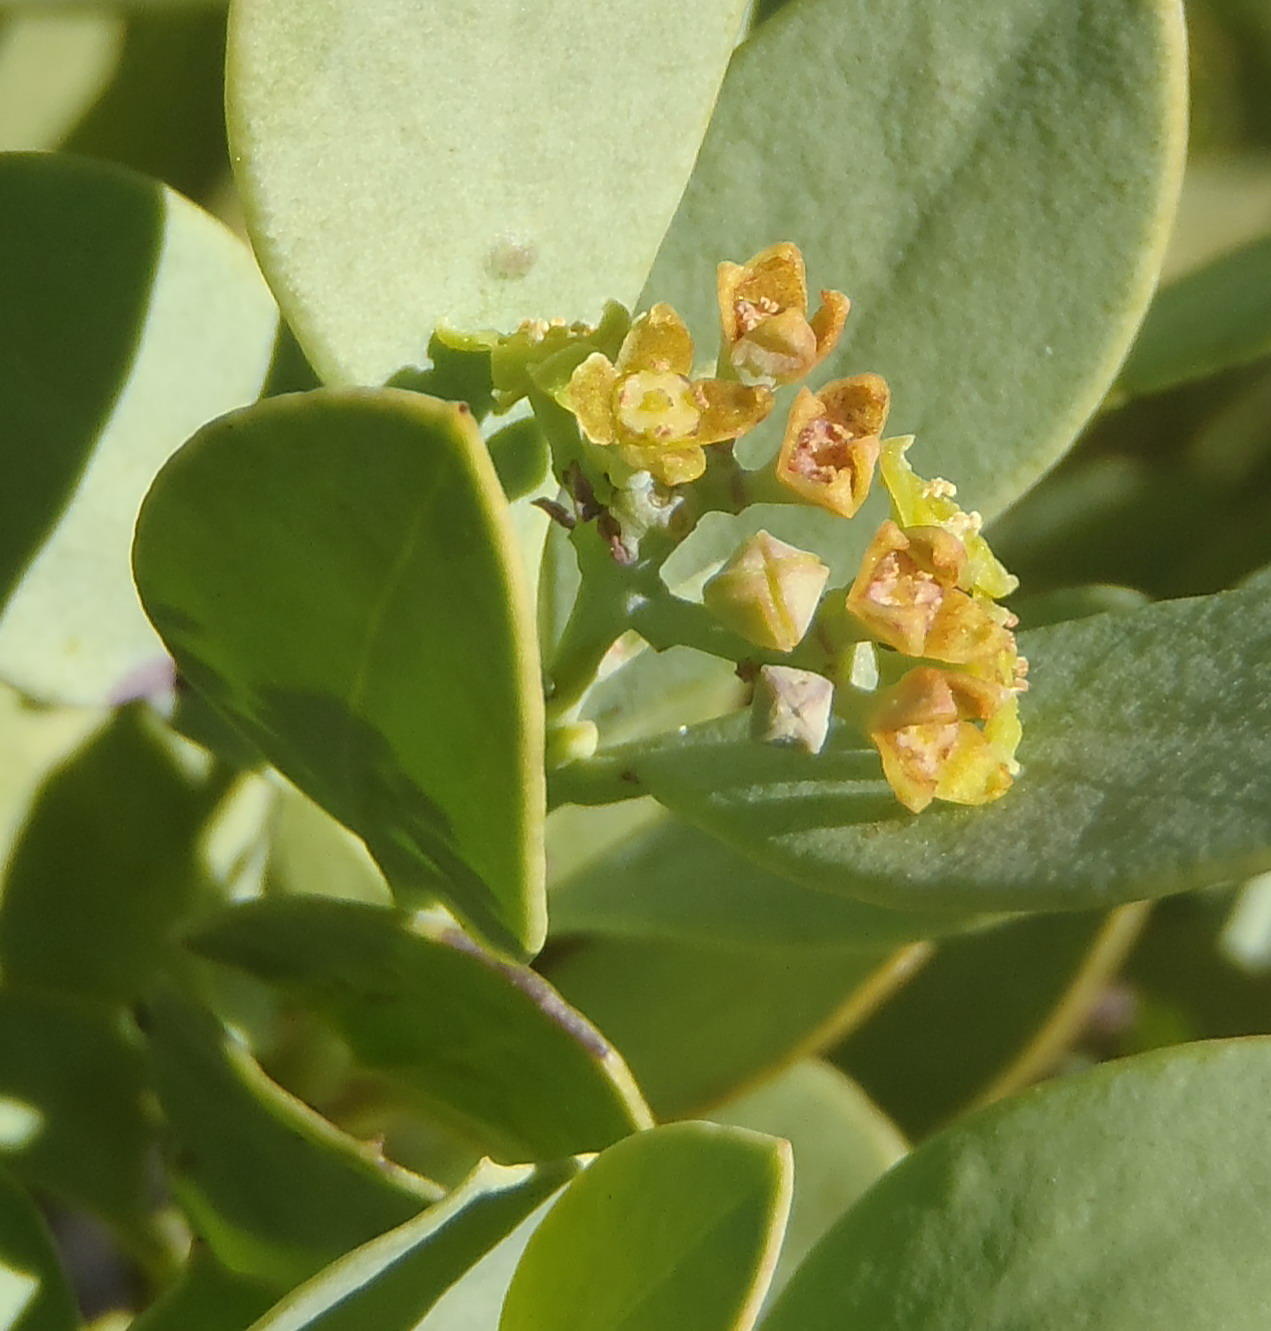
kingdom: Plantae
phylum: Tracheophyta
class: Magnoliopsida
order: Santalales
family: Santalaceae
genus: Osyris
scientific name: Osyris compressa
